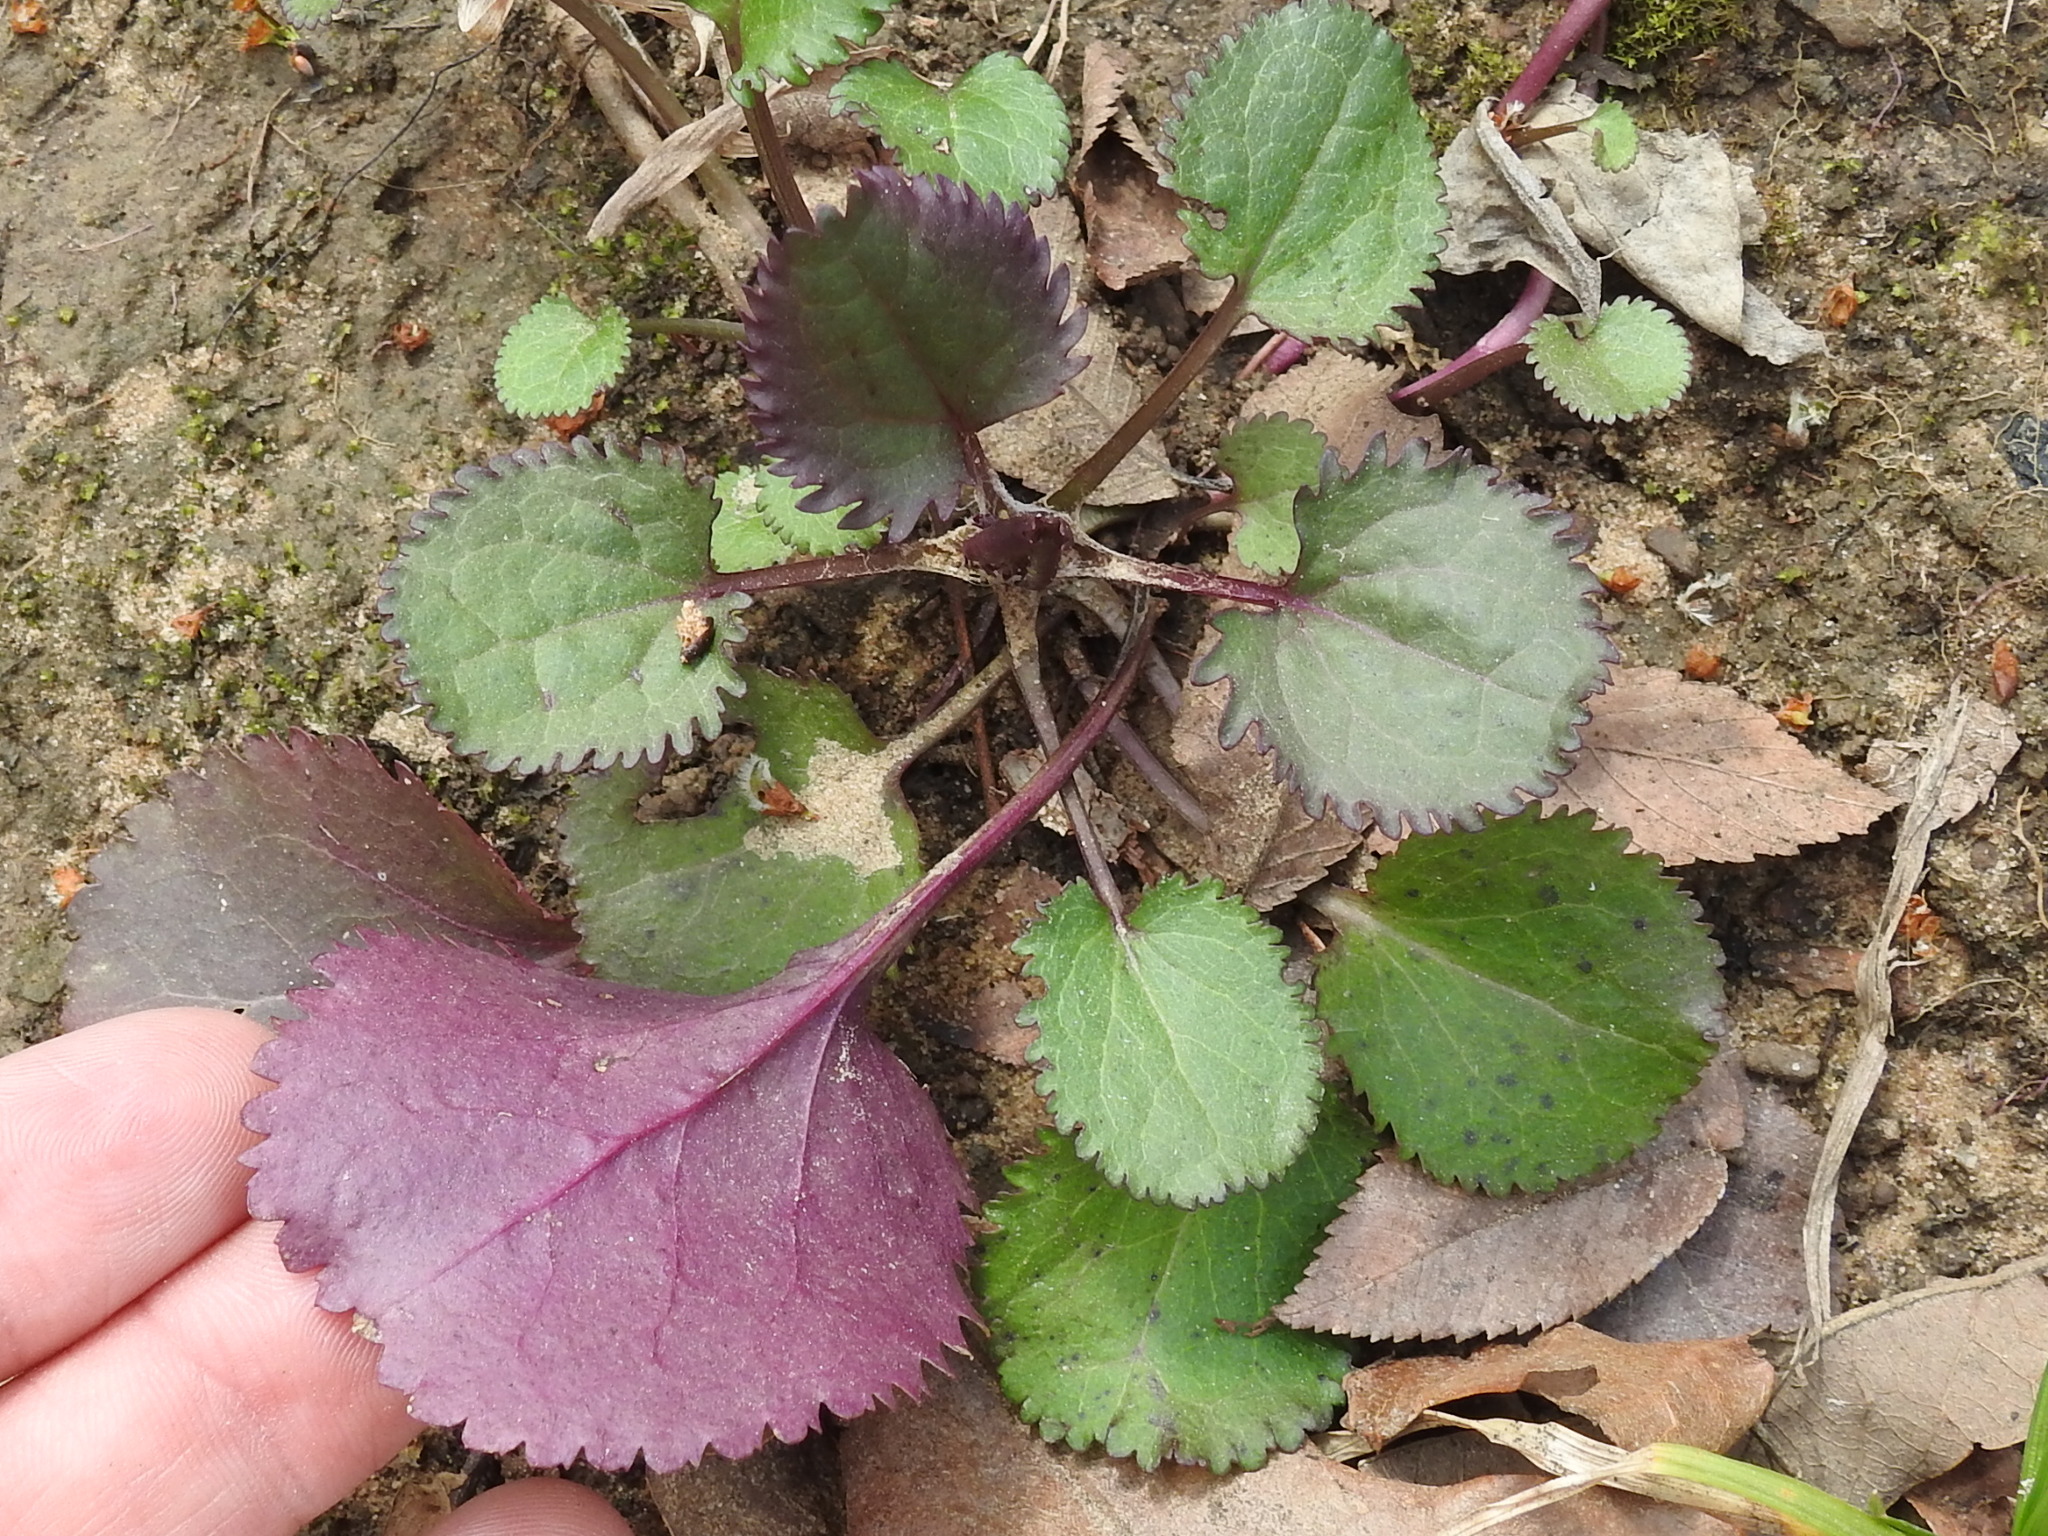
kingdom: Plantae
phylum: Tracheophyta
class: Magnoliopsida
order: Asterales
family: Asteraceae
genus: Packera
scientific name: Packera obovata
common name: Round-leaf ragwort
